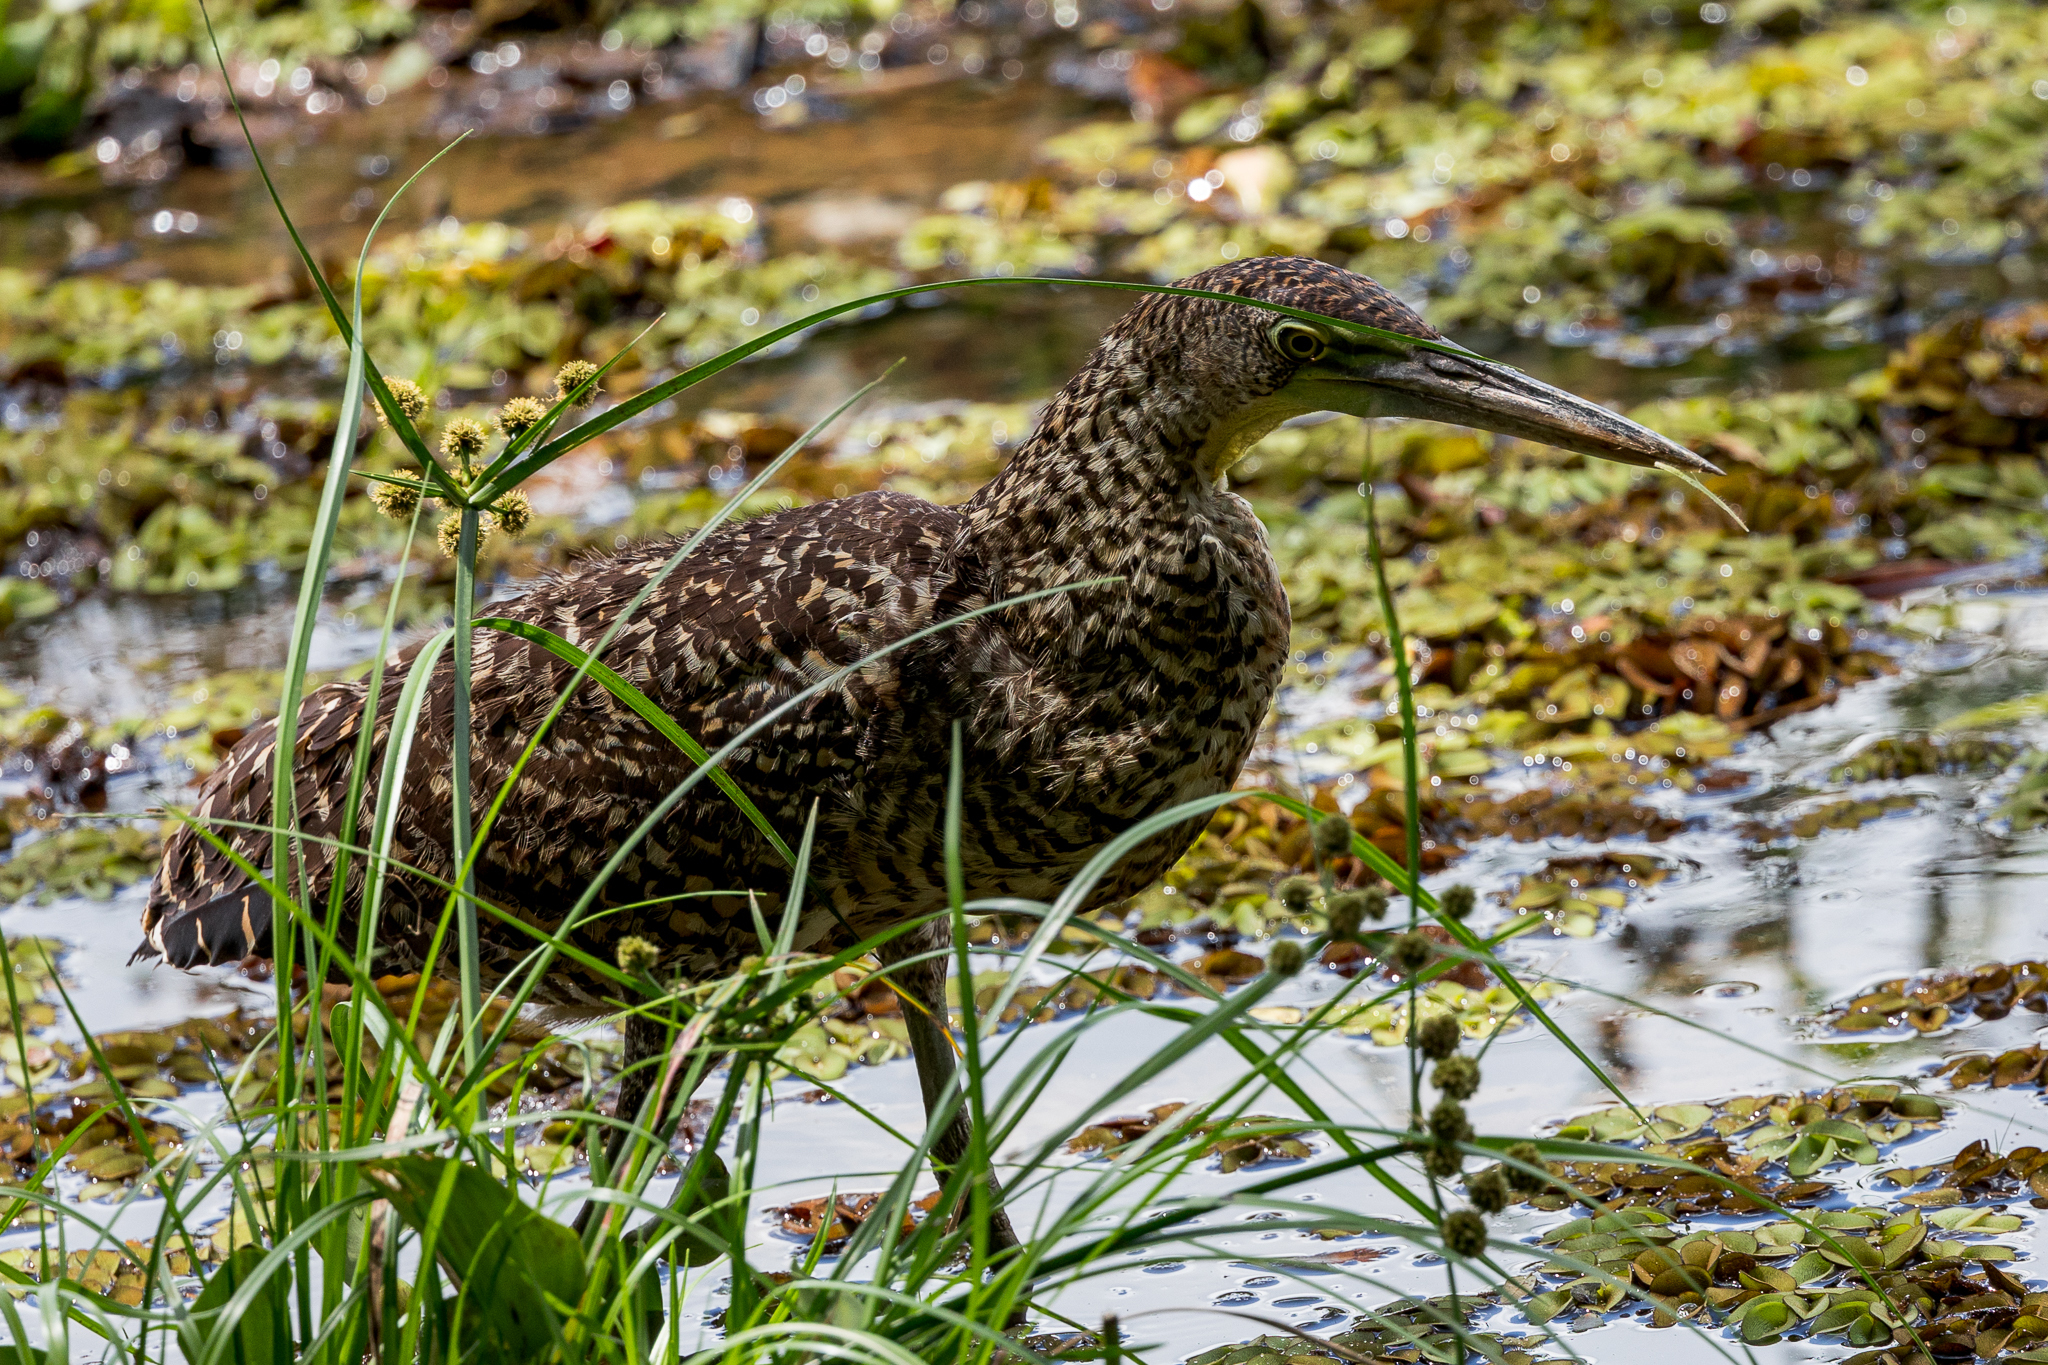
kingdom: Animalia
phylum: Chordata
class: Aves
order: Pelecaniformes
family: Ardeidae
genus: Tigrisoma
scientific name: Tigrisoma mexicanum
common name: Bare-throated tiger-heron
